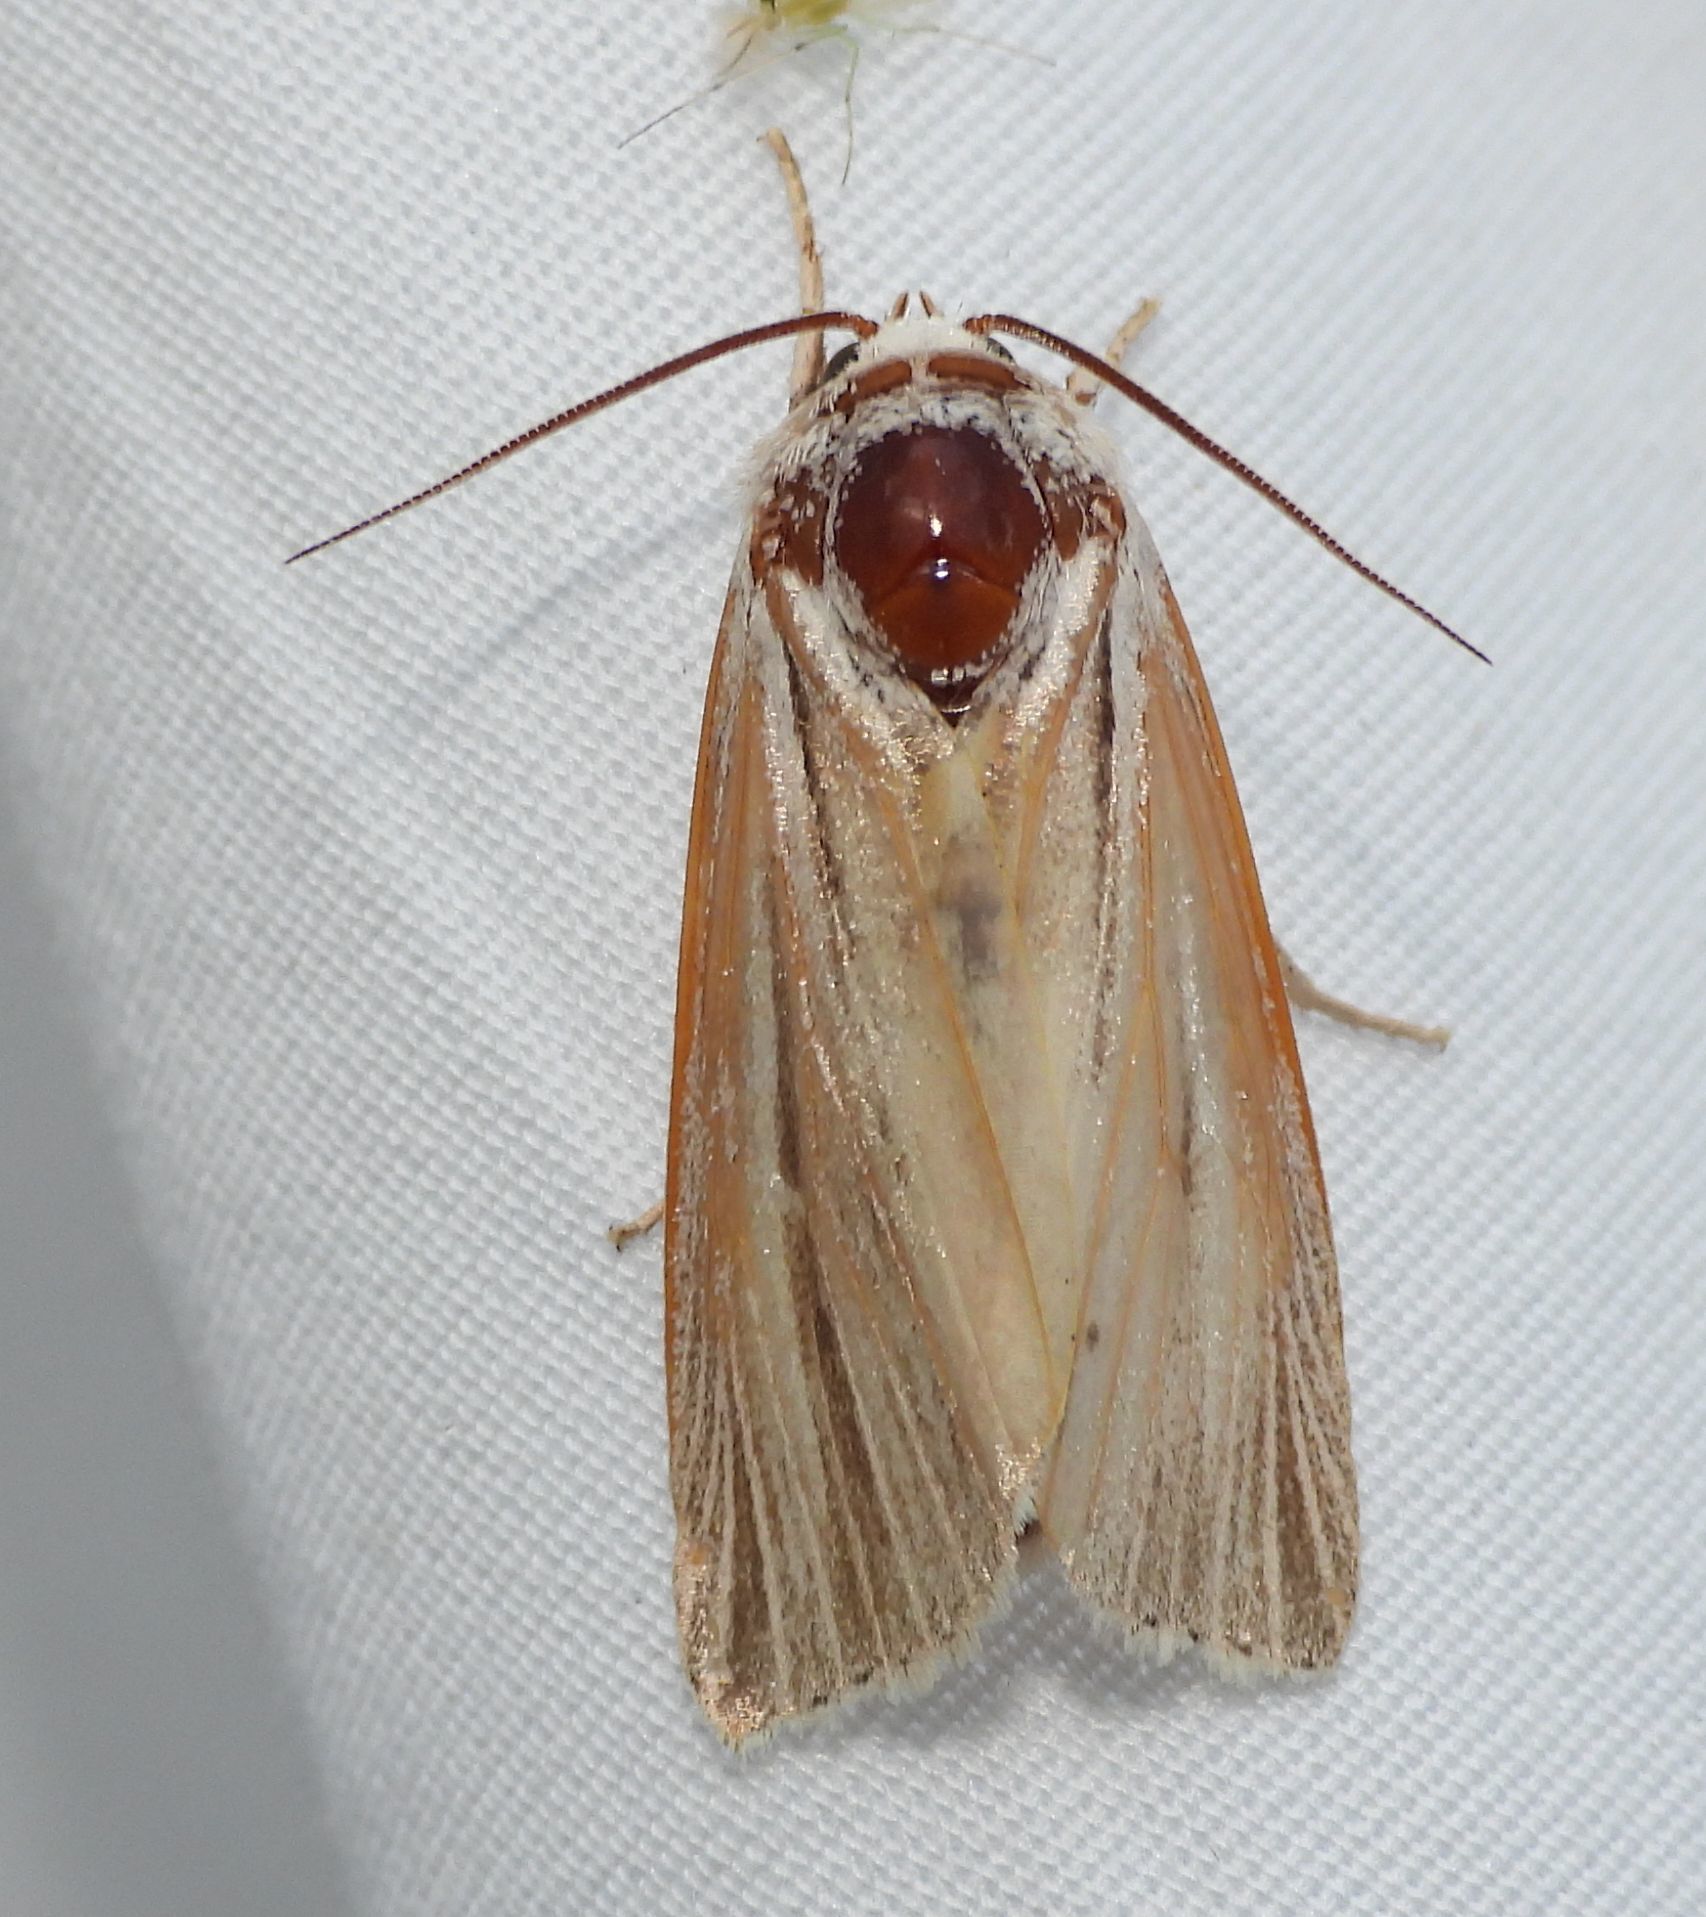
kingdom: Animalia
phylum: Arthropoda
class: Insecta
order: Lepidoptera
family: Noctuidae
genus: Acronicta
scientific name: Acronicta insularis
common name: Henry's marsh moth
